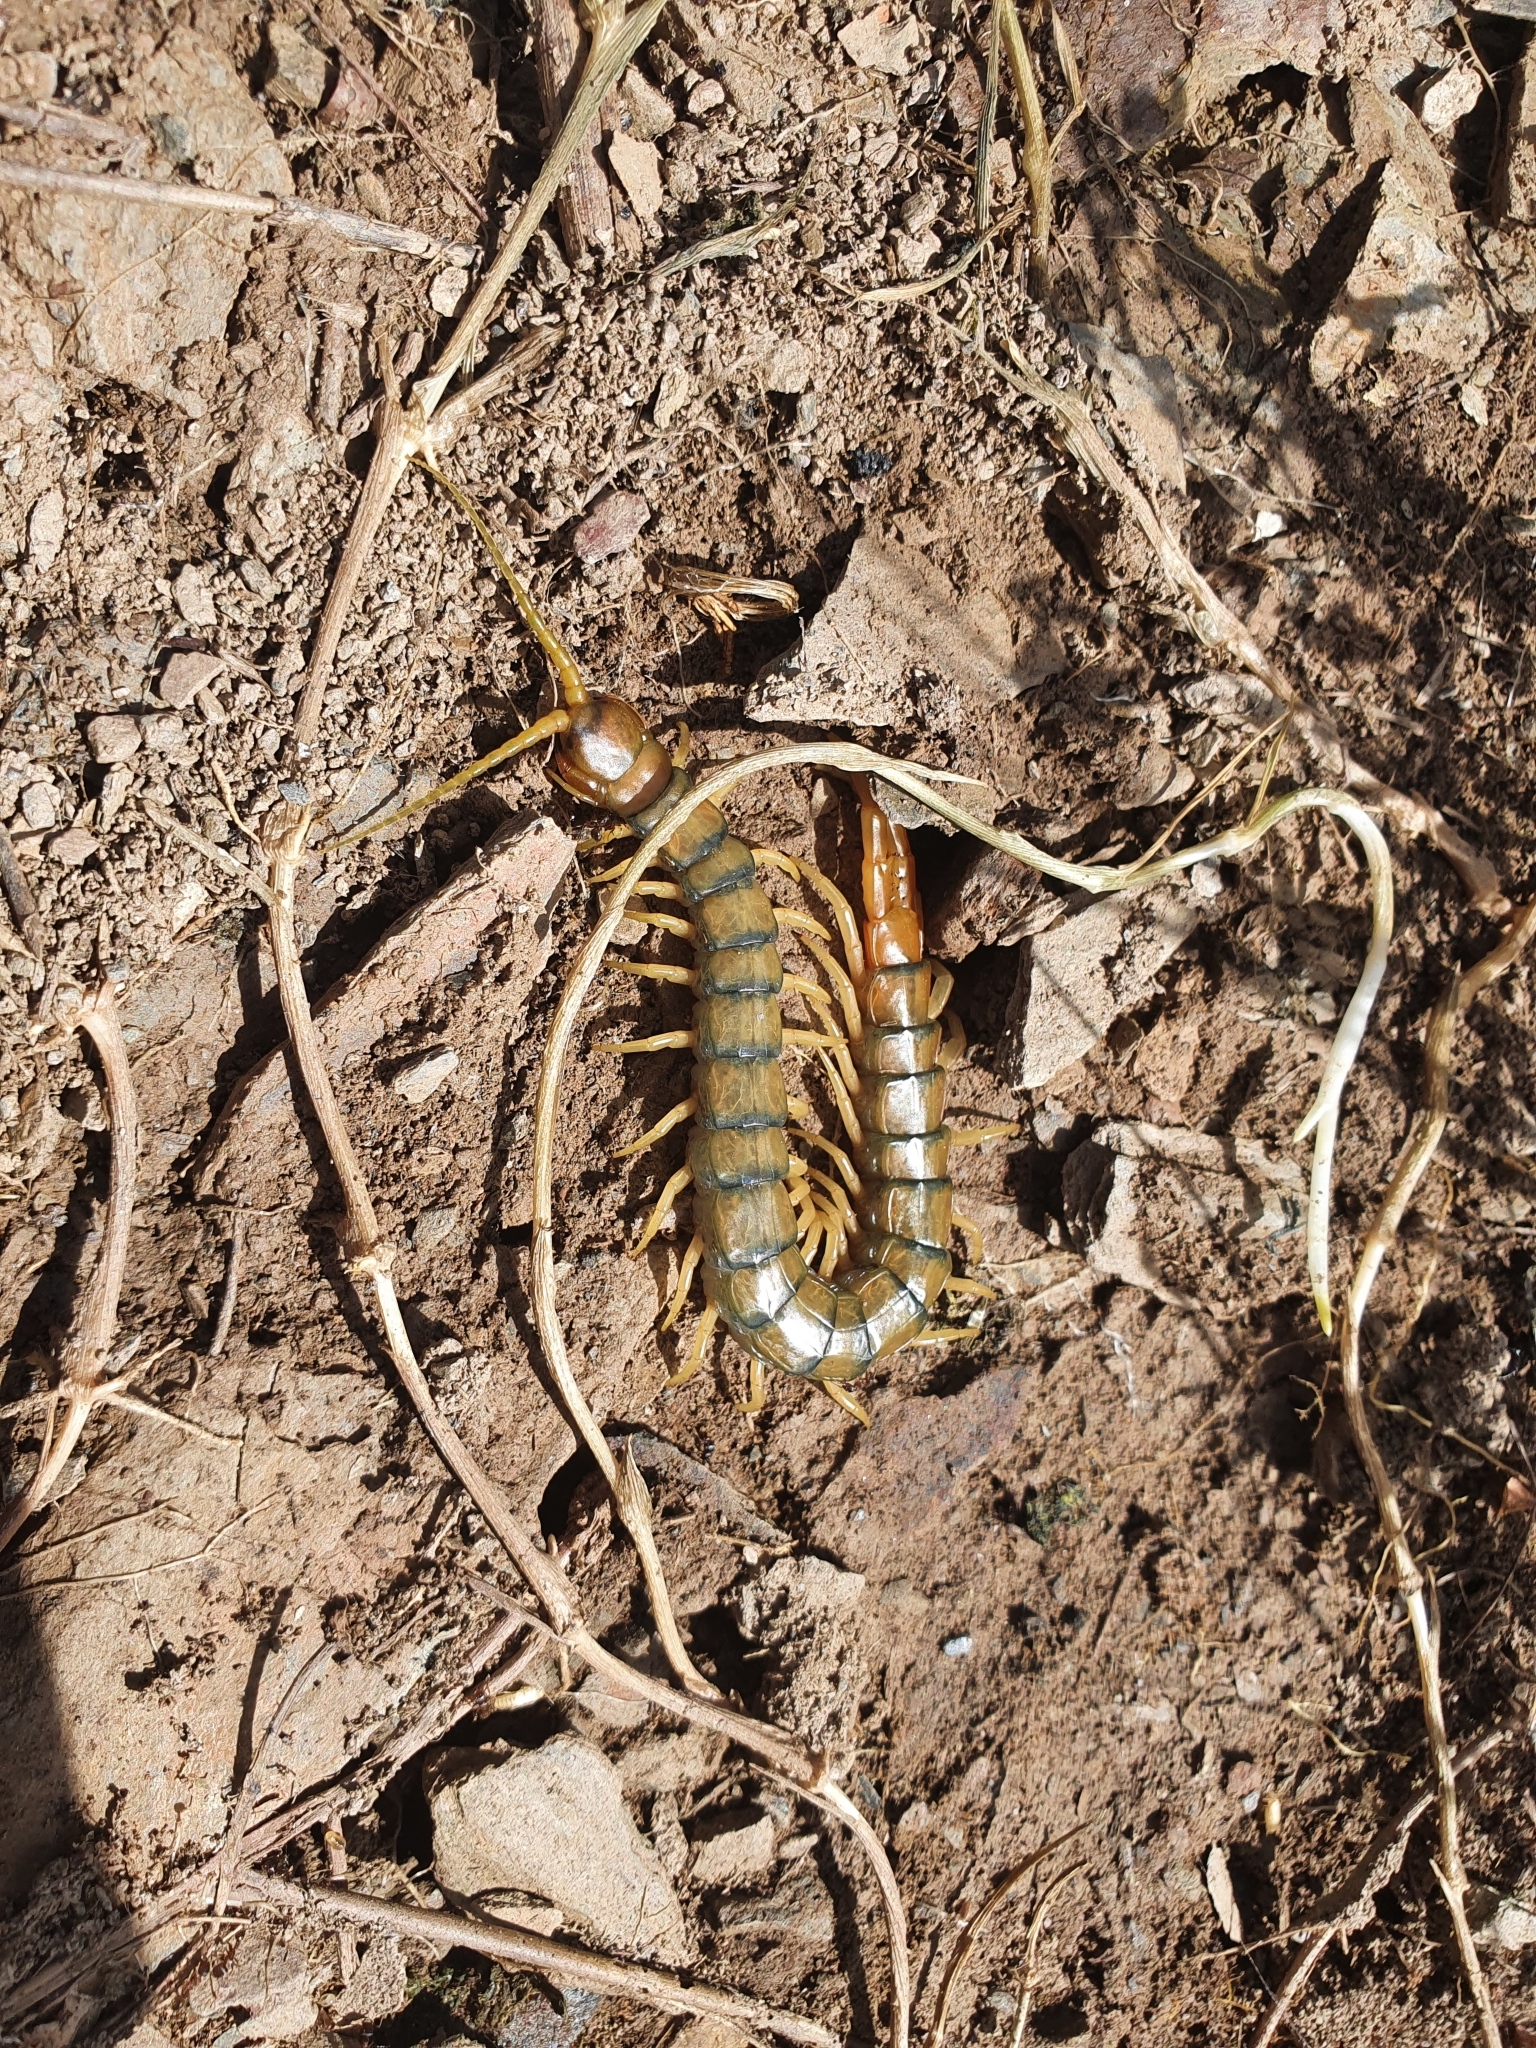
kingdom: Animalia
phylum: Arthropoda
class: Chilopoda
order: Scolopendromorpha
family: Scolopendridae
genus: Scolopendra
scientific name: Scolopendra cingulata
